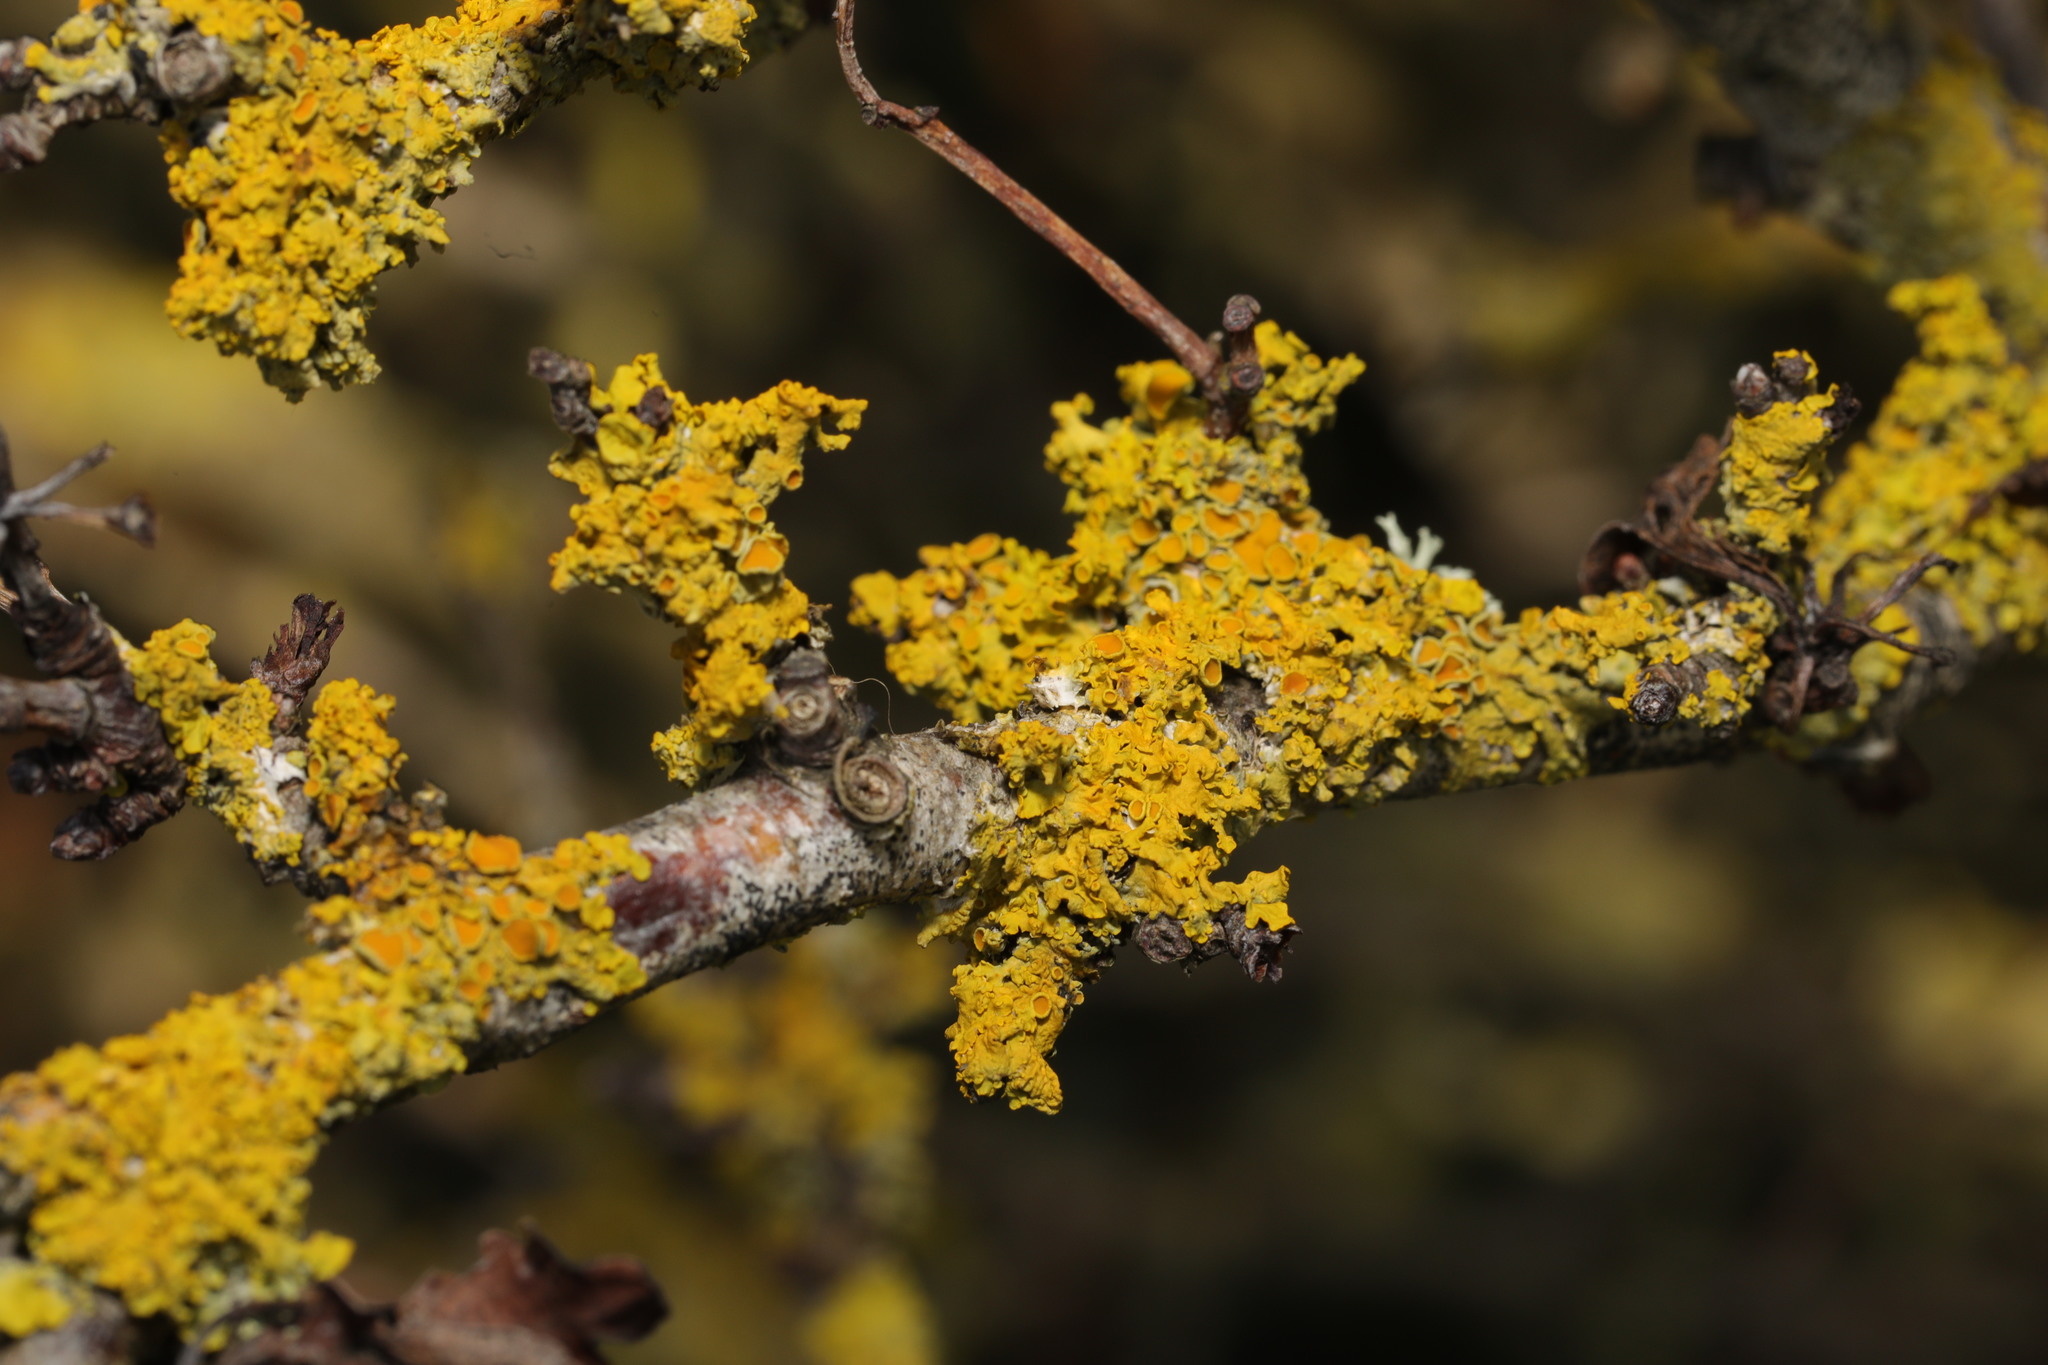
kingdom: Fungi
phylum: Ascomycota
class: Lecanoromycetes
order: Teloschistales
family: Teloschistaceae
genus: Xanthoria
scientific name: Xanthoria parietina
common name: Common orange lichen
